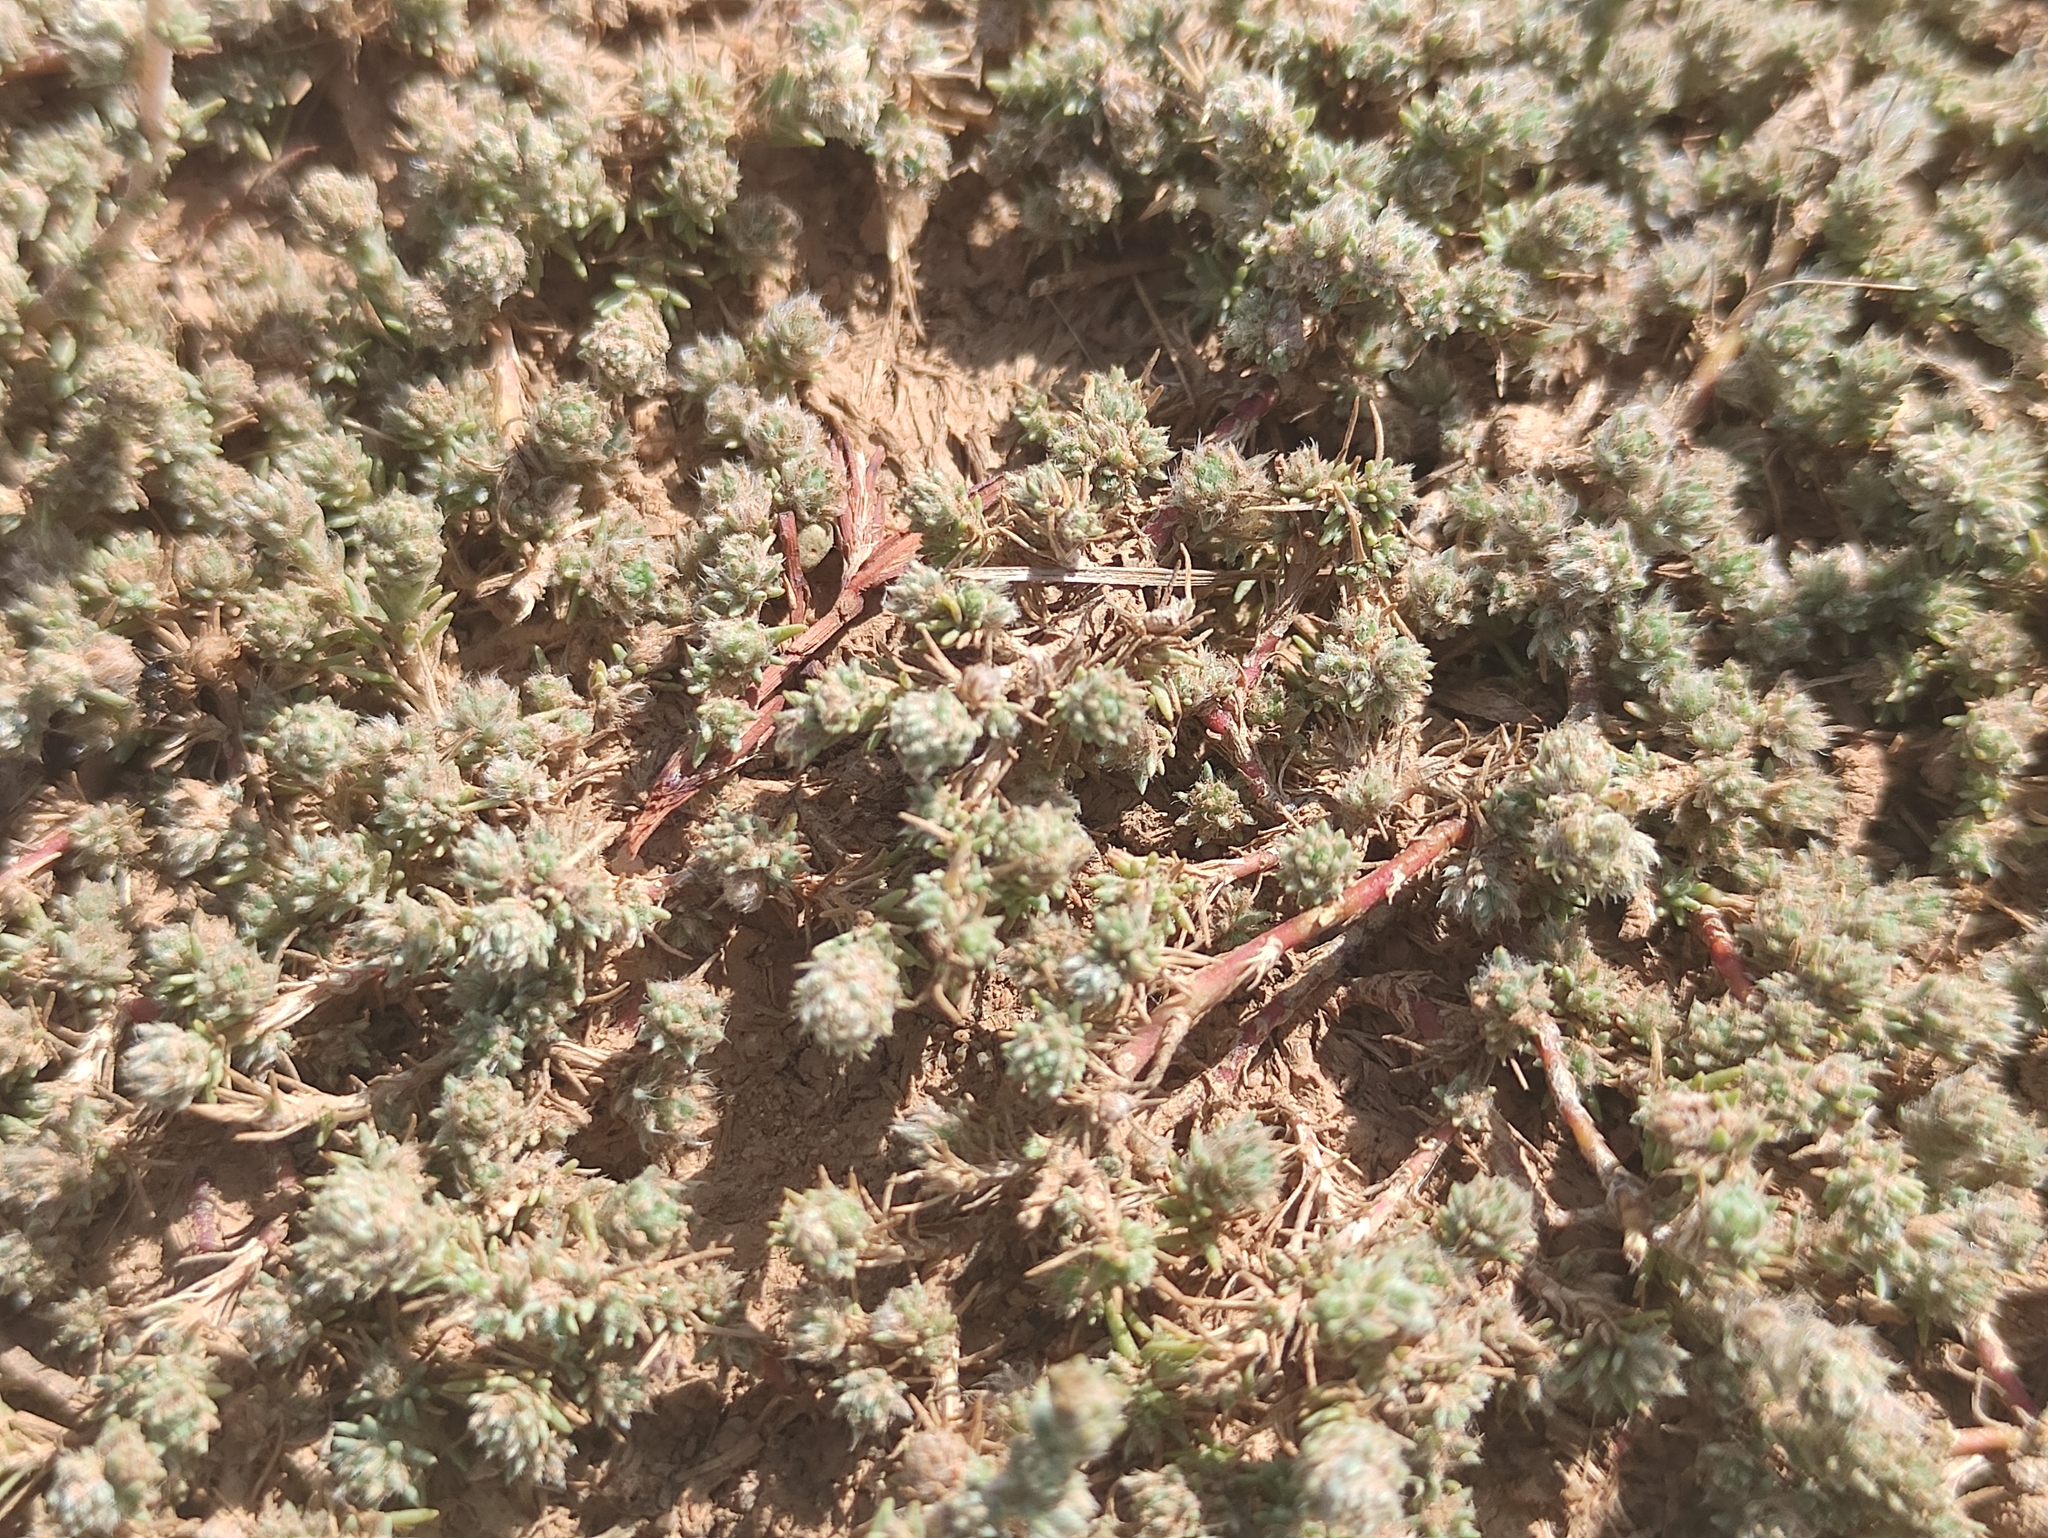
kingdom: Plantae
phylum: Tracheophyta
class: Magnoliopsida
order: Caryophyllales
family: Amaranthaceae
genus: Camphorosma
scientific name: Camphorosma monspeliaca
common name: Camphorfume
